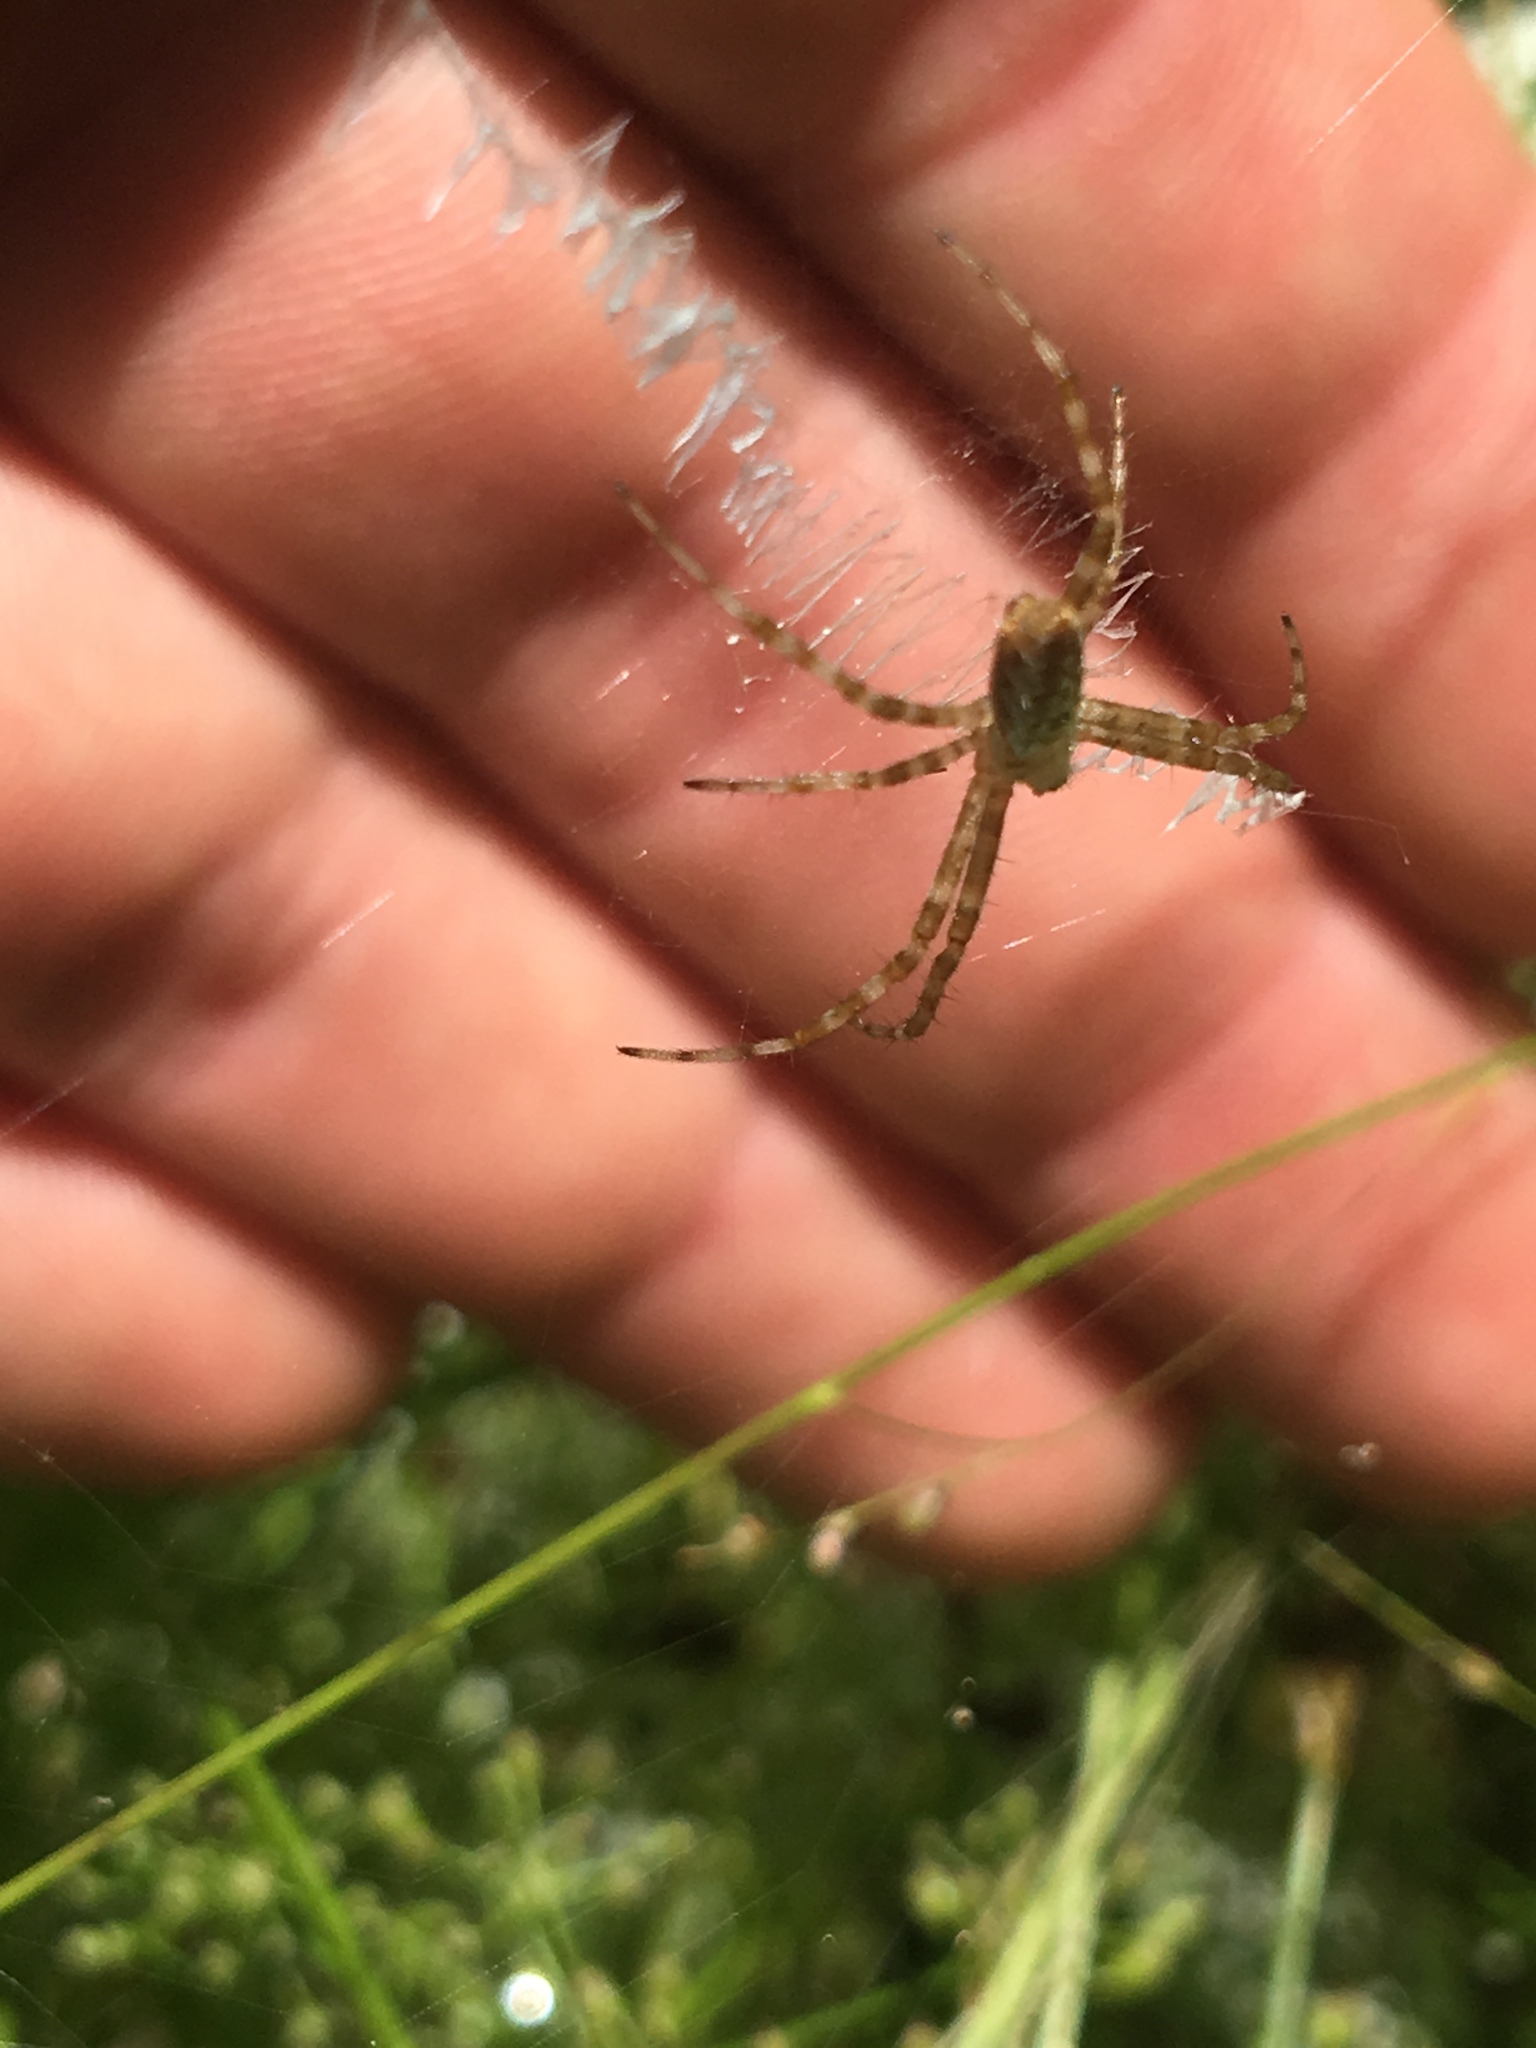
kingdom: Animalia
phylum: Arthropoda
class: Arachnida
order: Araneae
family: Araneidae
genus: Argiope
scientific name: Argiope aurantia
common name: Orb weavers
